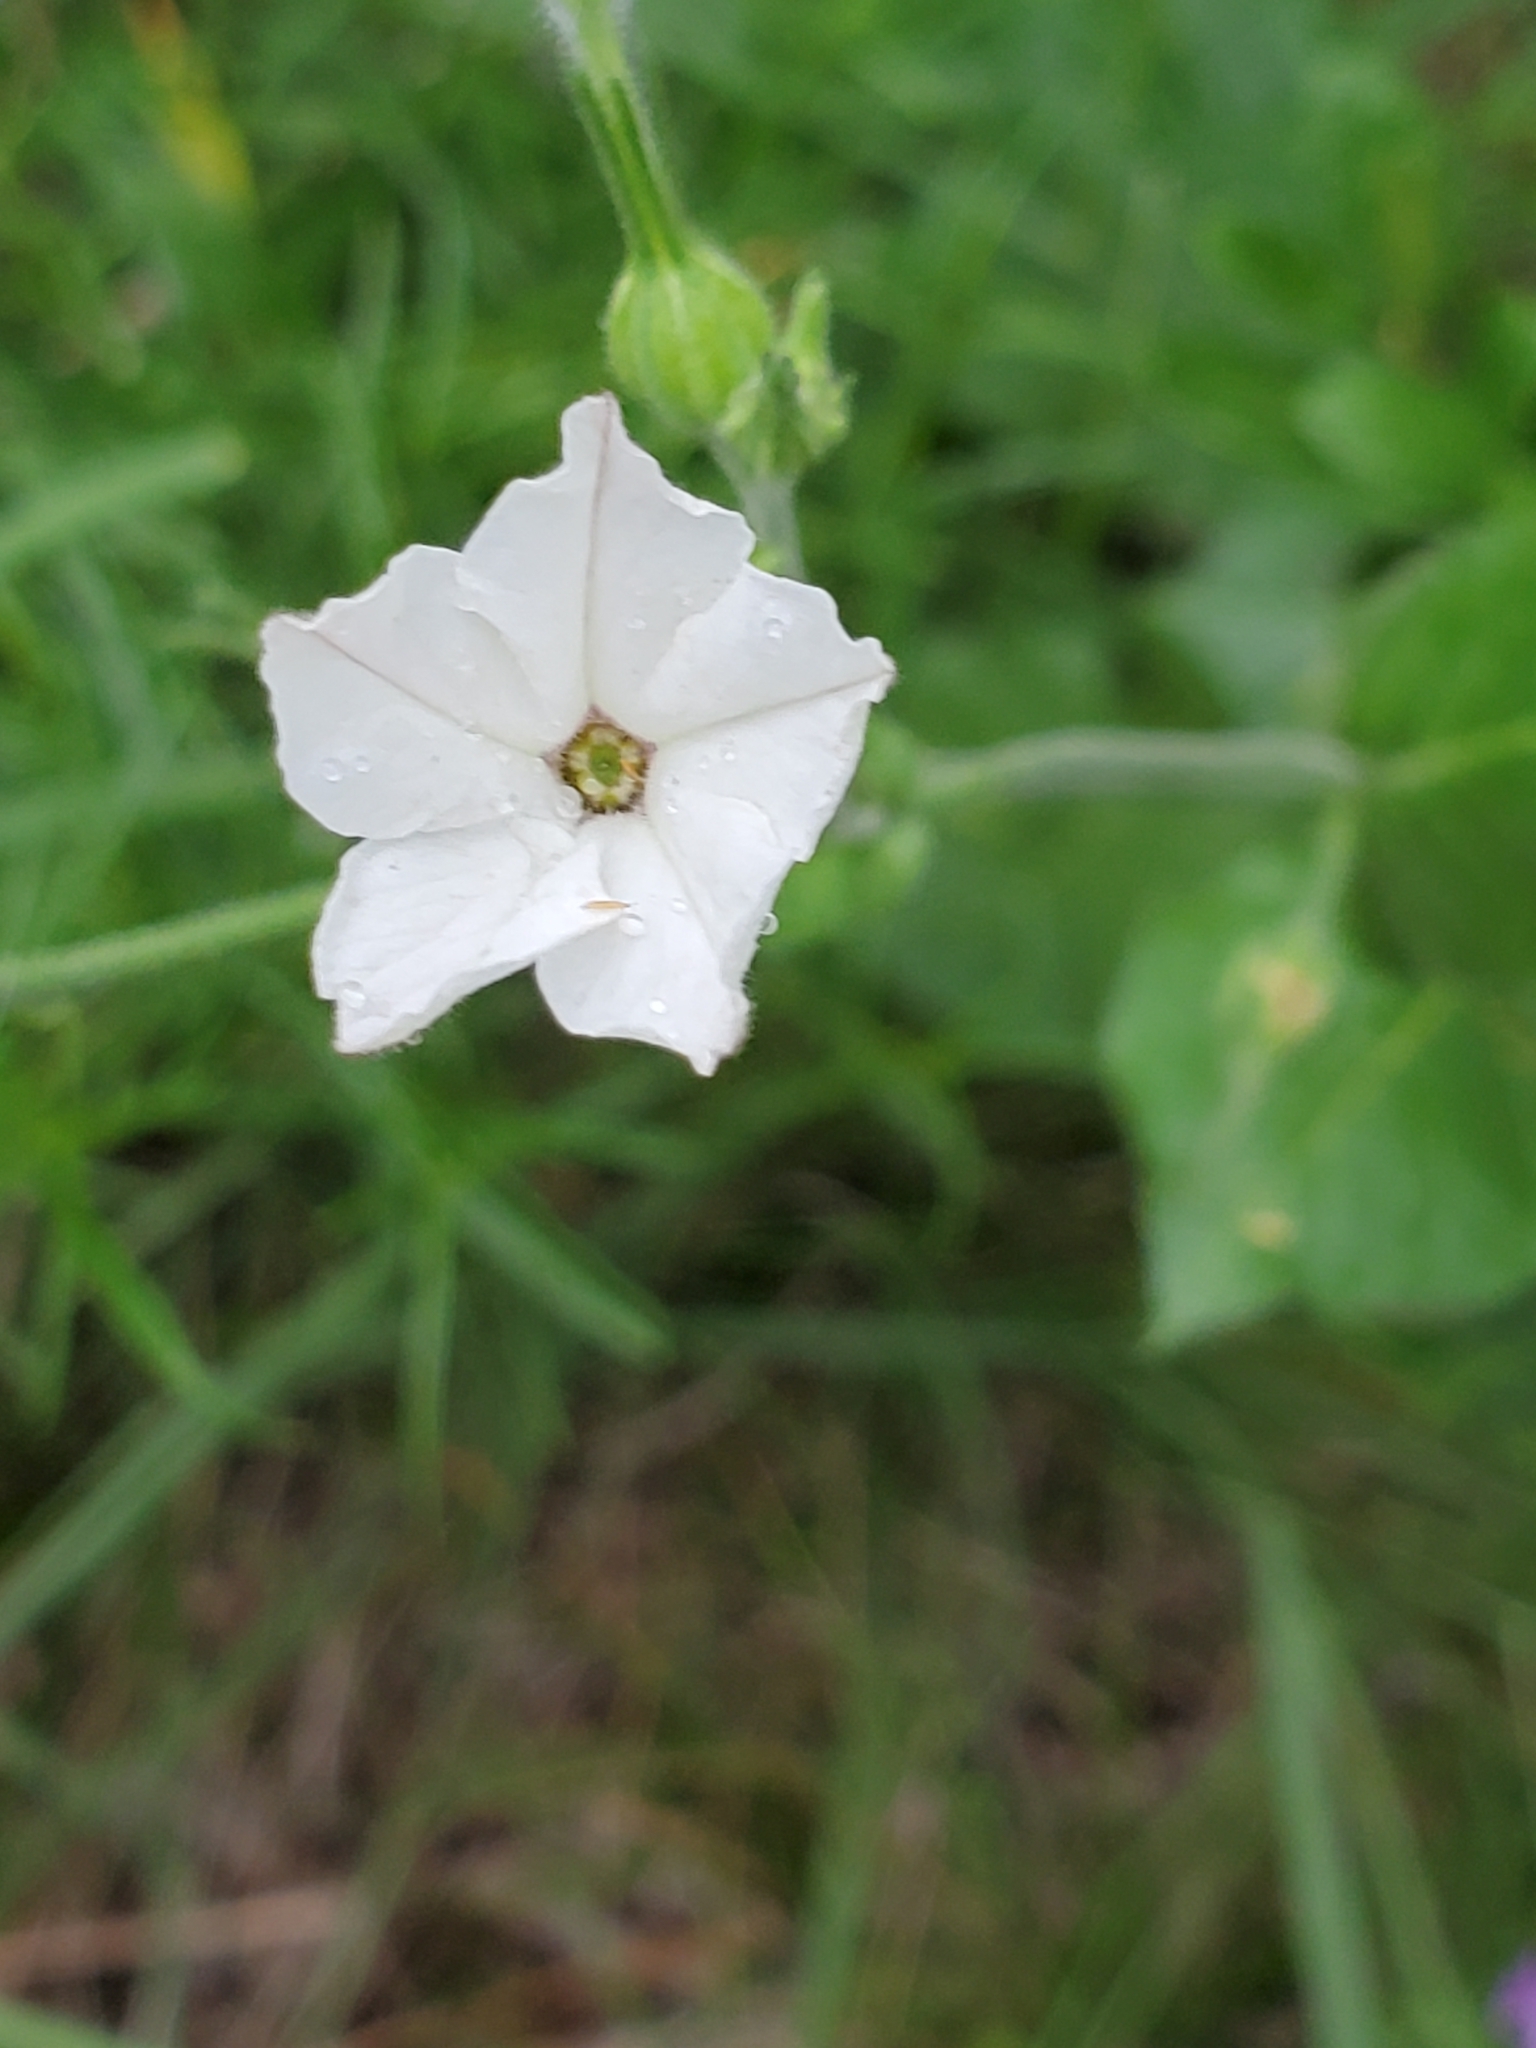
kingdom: Plantae
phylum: Tracheophyta
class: Magnoliopsida
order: Solanales
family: Solanaceae
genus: Nicotiana
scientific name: Nicotiana repanda
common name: Fiddle-leaf tobacco
